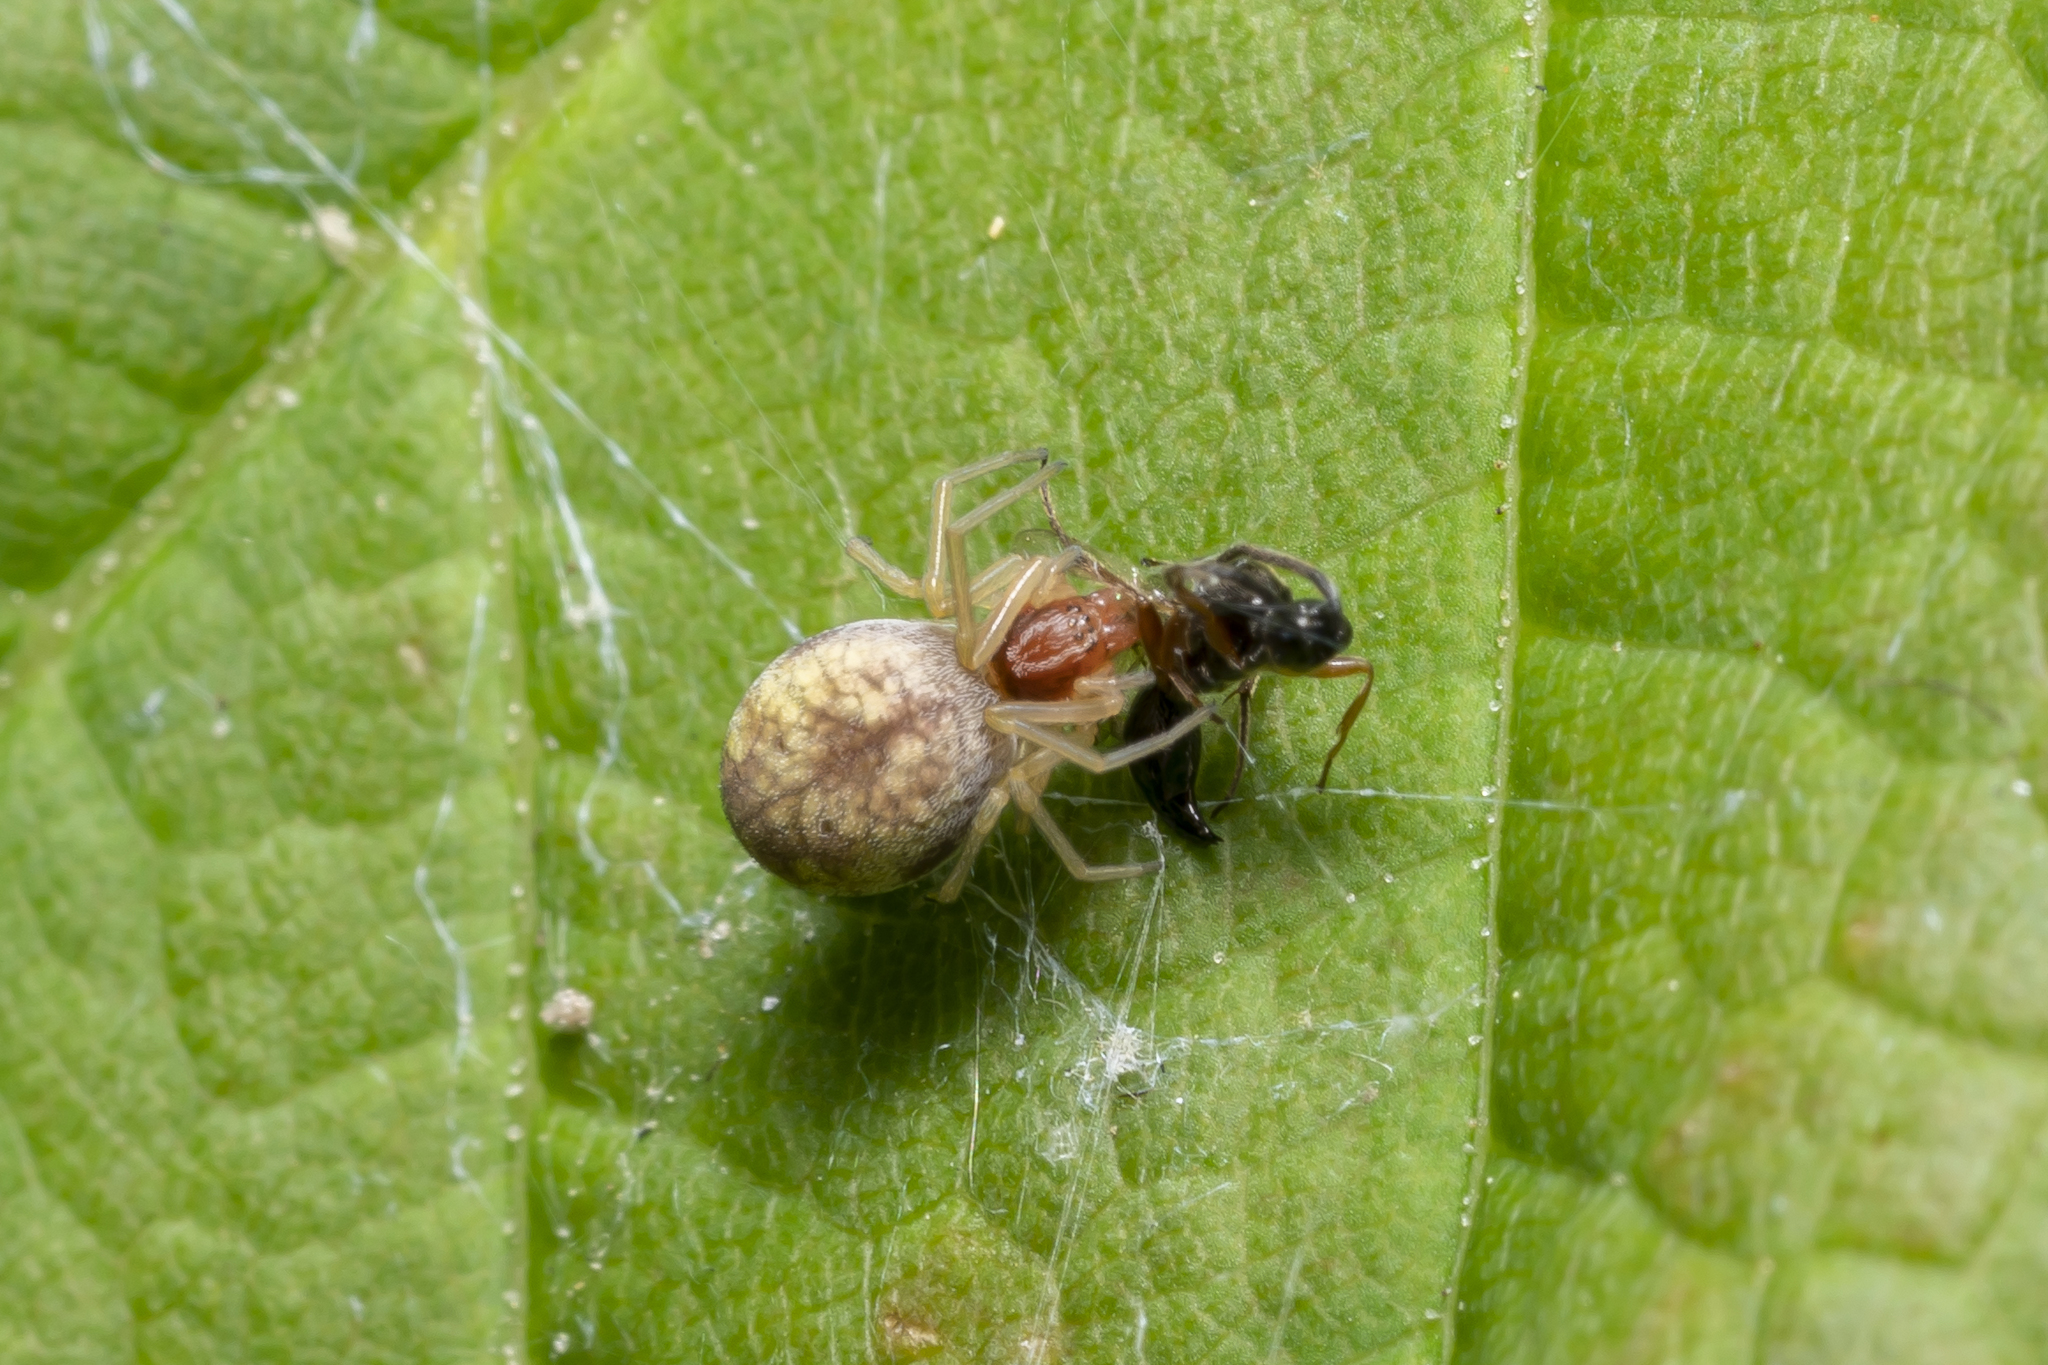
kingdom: Animalia
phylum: Arthropoda
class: Arachnida
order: Araneae
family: Dictynidae
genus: Nigma
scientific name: Nigma flavescens
